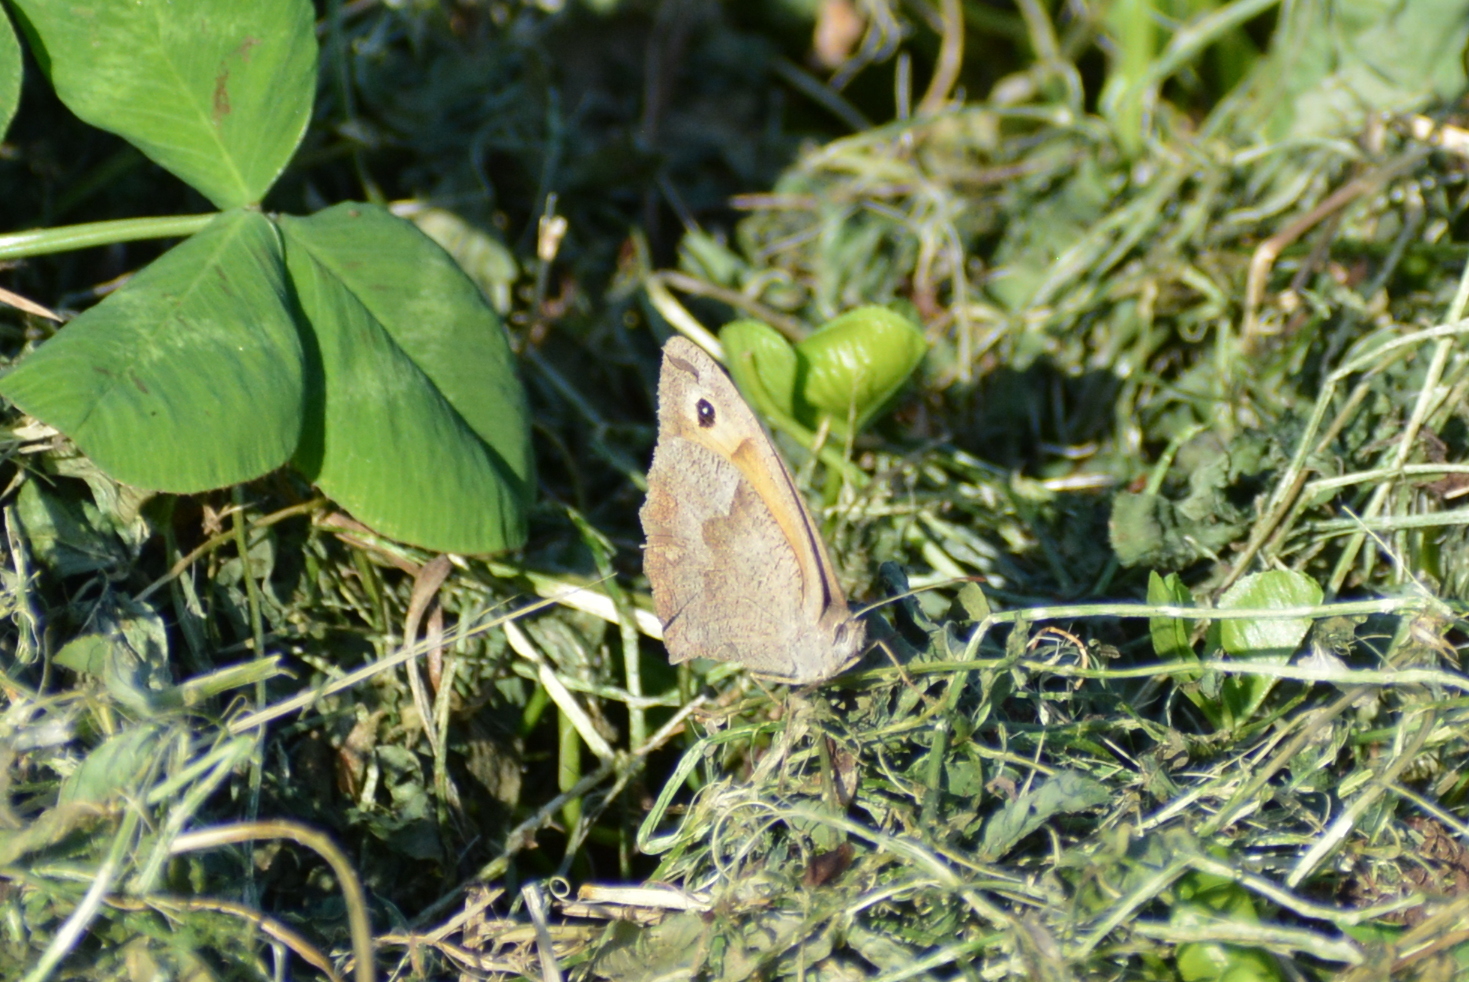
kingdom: Animalia
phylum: Arthropoda
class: Insecta
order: Lepidoptera
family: Nymphalidae
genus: Maniola
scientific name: Maniola jurtina
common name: Meadow brown
